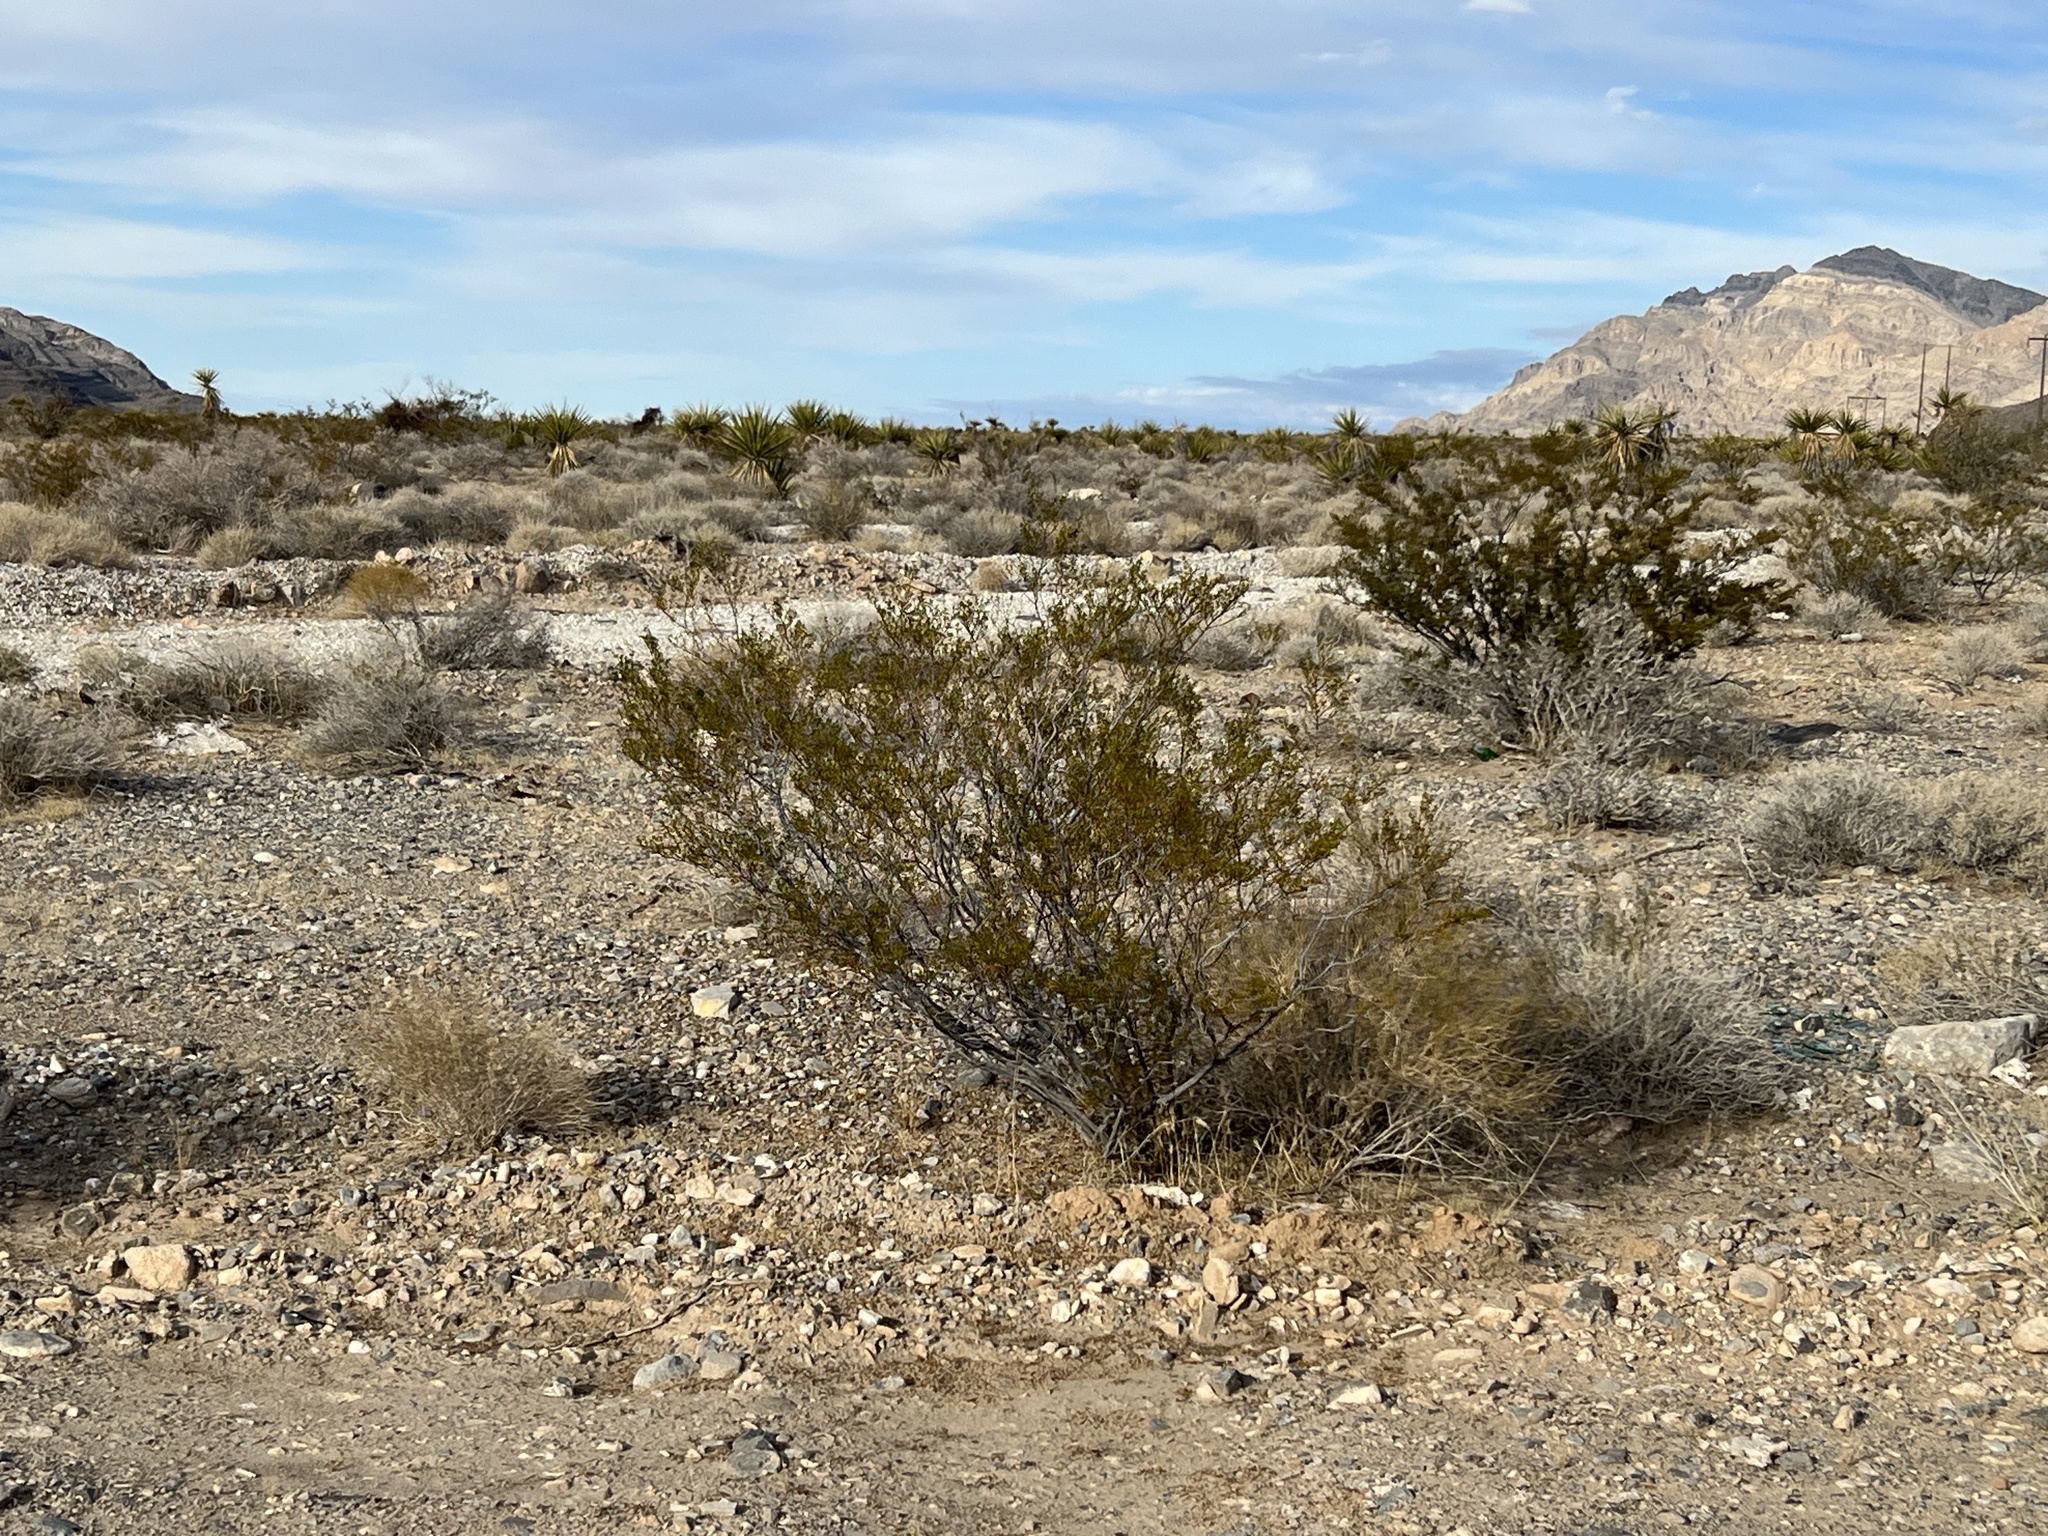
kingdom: Plantae
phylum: Tracheophyta
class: Magnoliopsida
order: Zygophyllales
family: Zygophyllaceae
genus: Larrea
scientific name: Larrea tridentata
